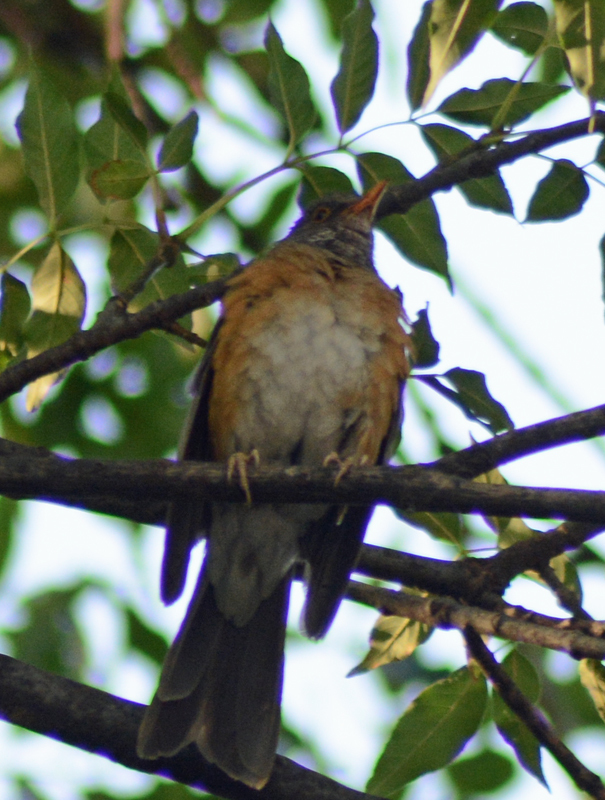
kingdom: Animalia
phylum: Chordata
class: Aves
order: Passeriformes
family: Turdidae
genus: Turdus
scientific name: Turdus rufopalliatus
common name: Rufous-backed robin
